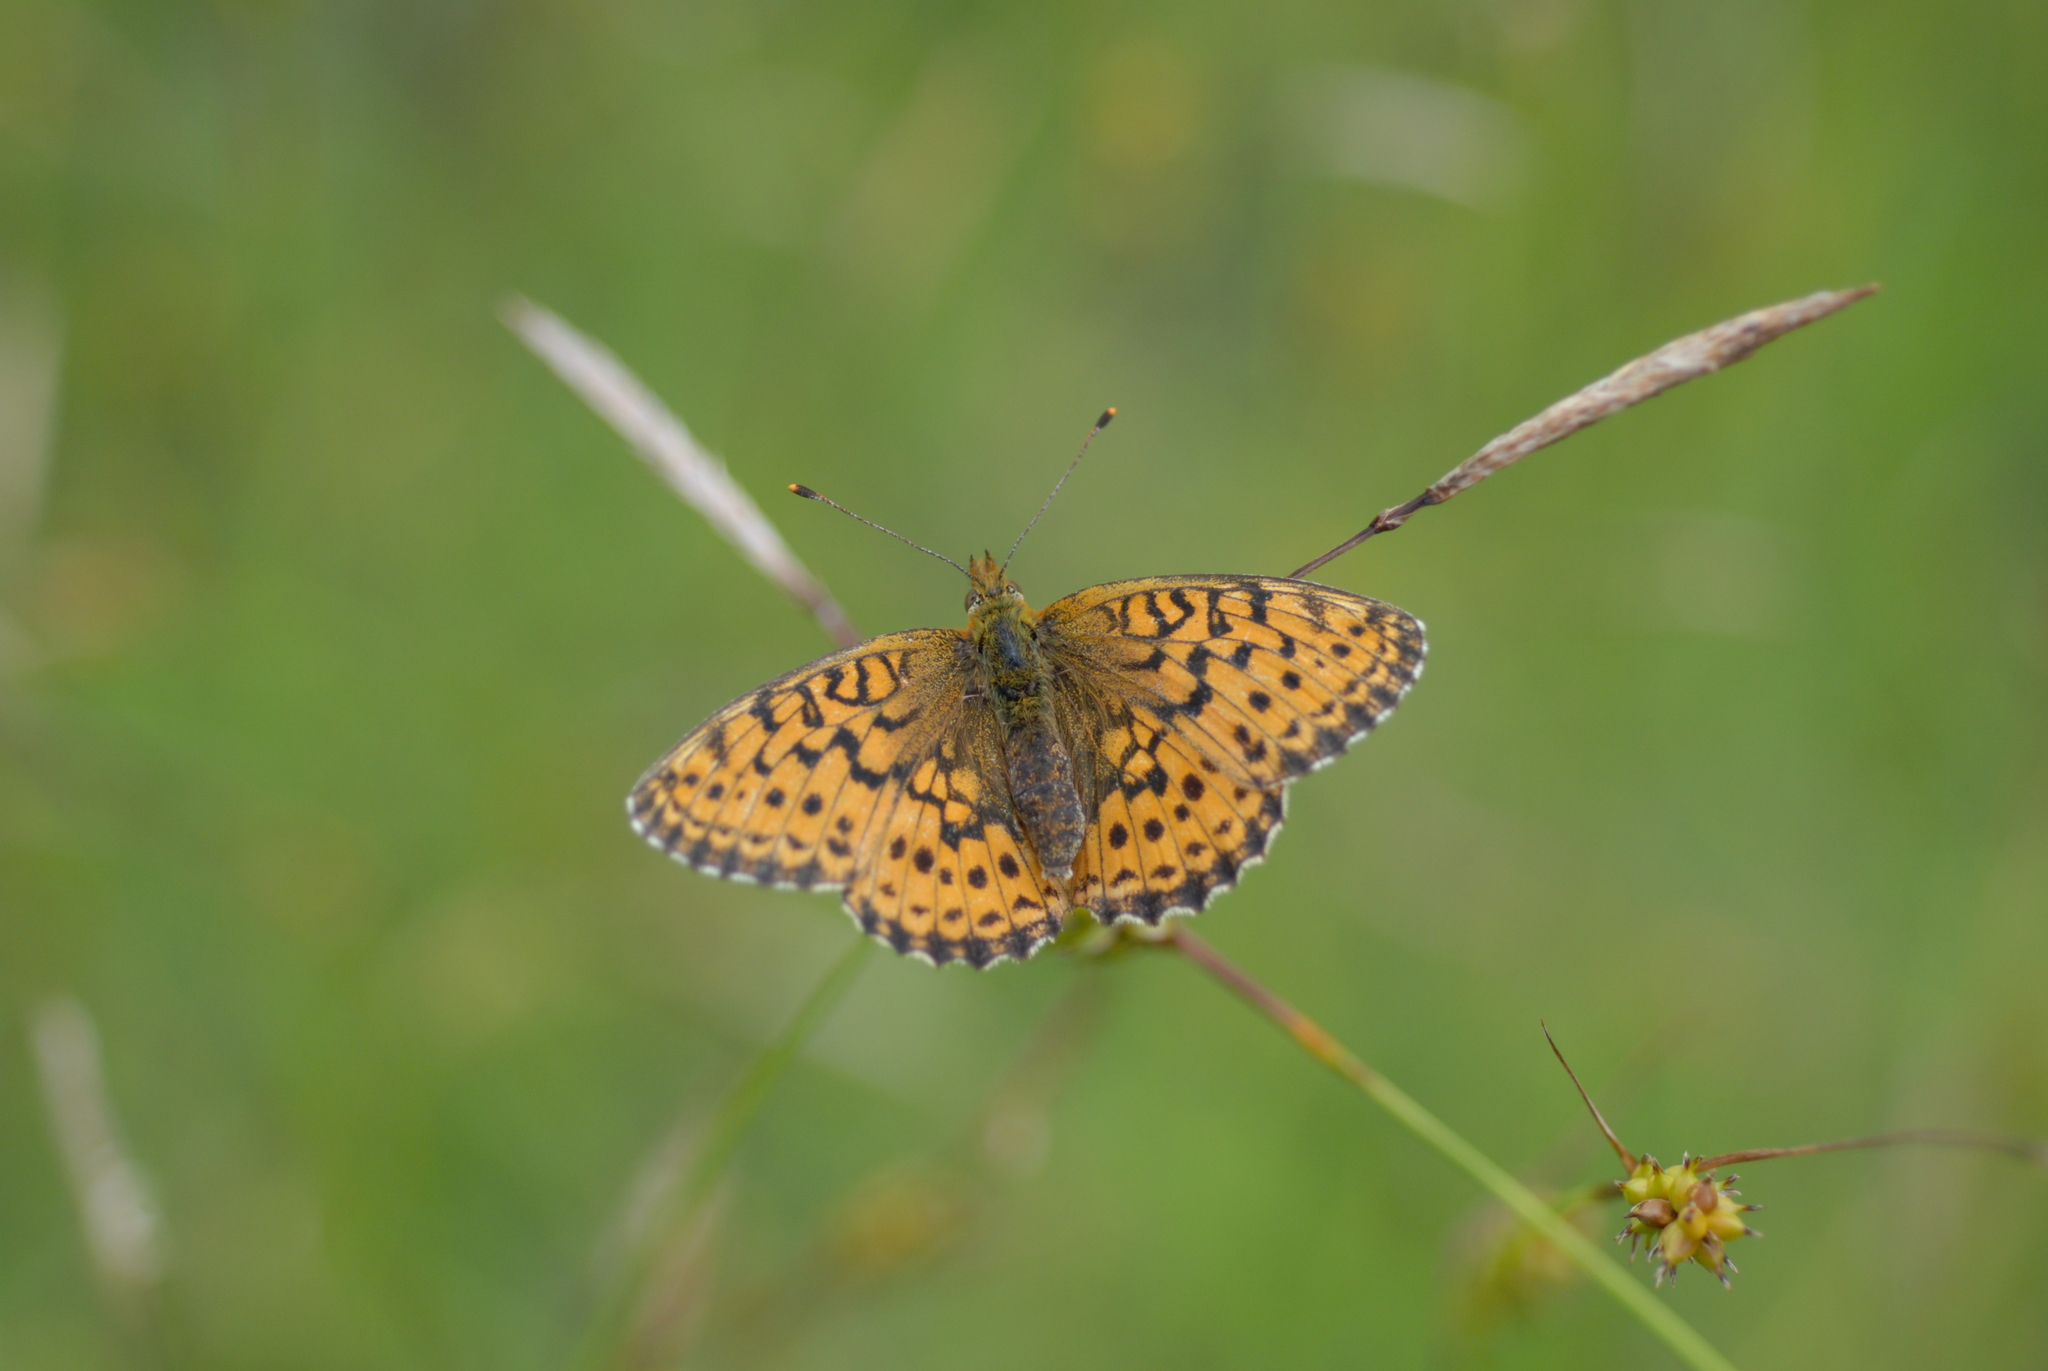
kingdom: Animalia
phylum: Arthropoda
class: Insecta
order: Lepidoptera
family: Nymphalidae
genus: Brenthis
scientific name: Brenthis ino
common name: Lesser marbled fritillary
